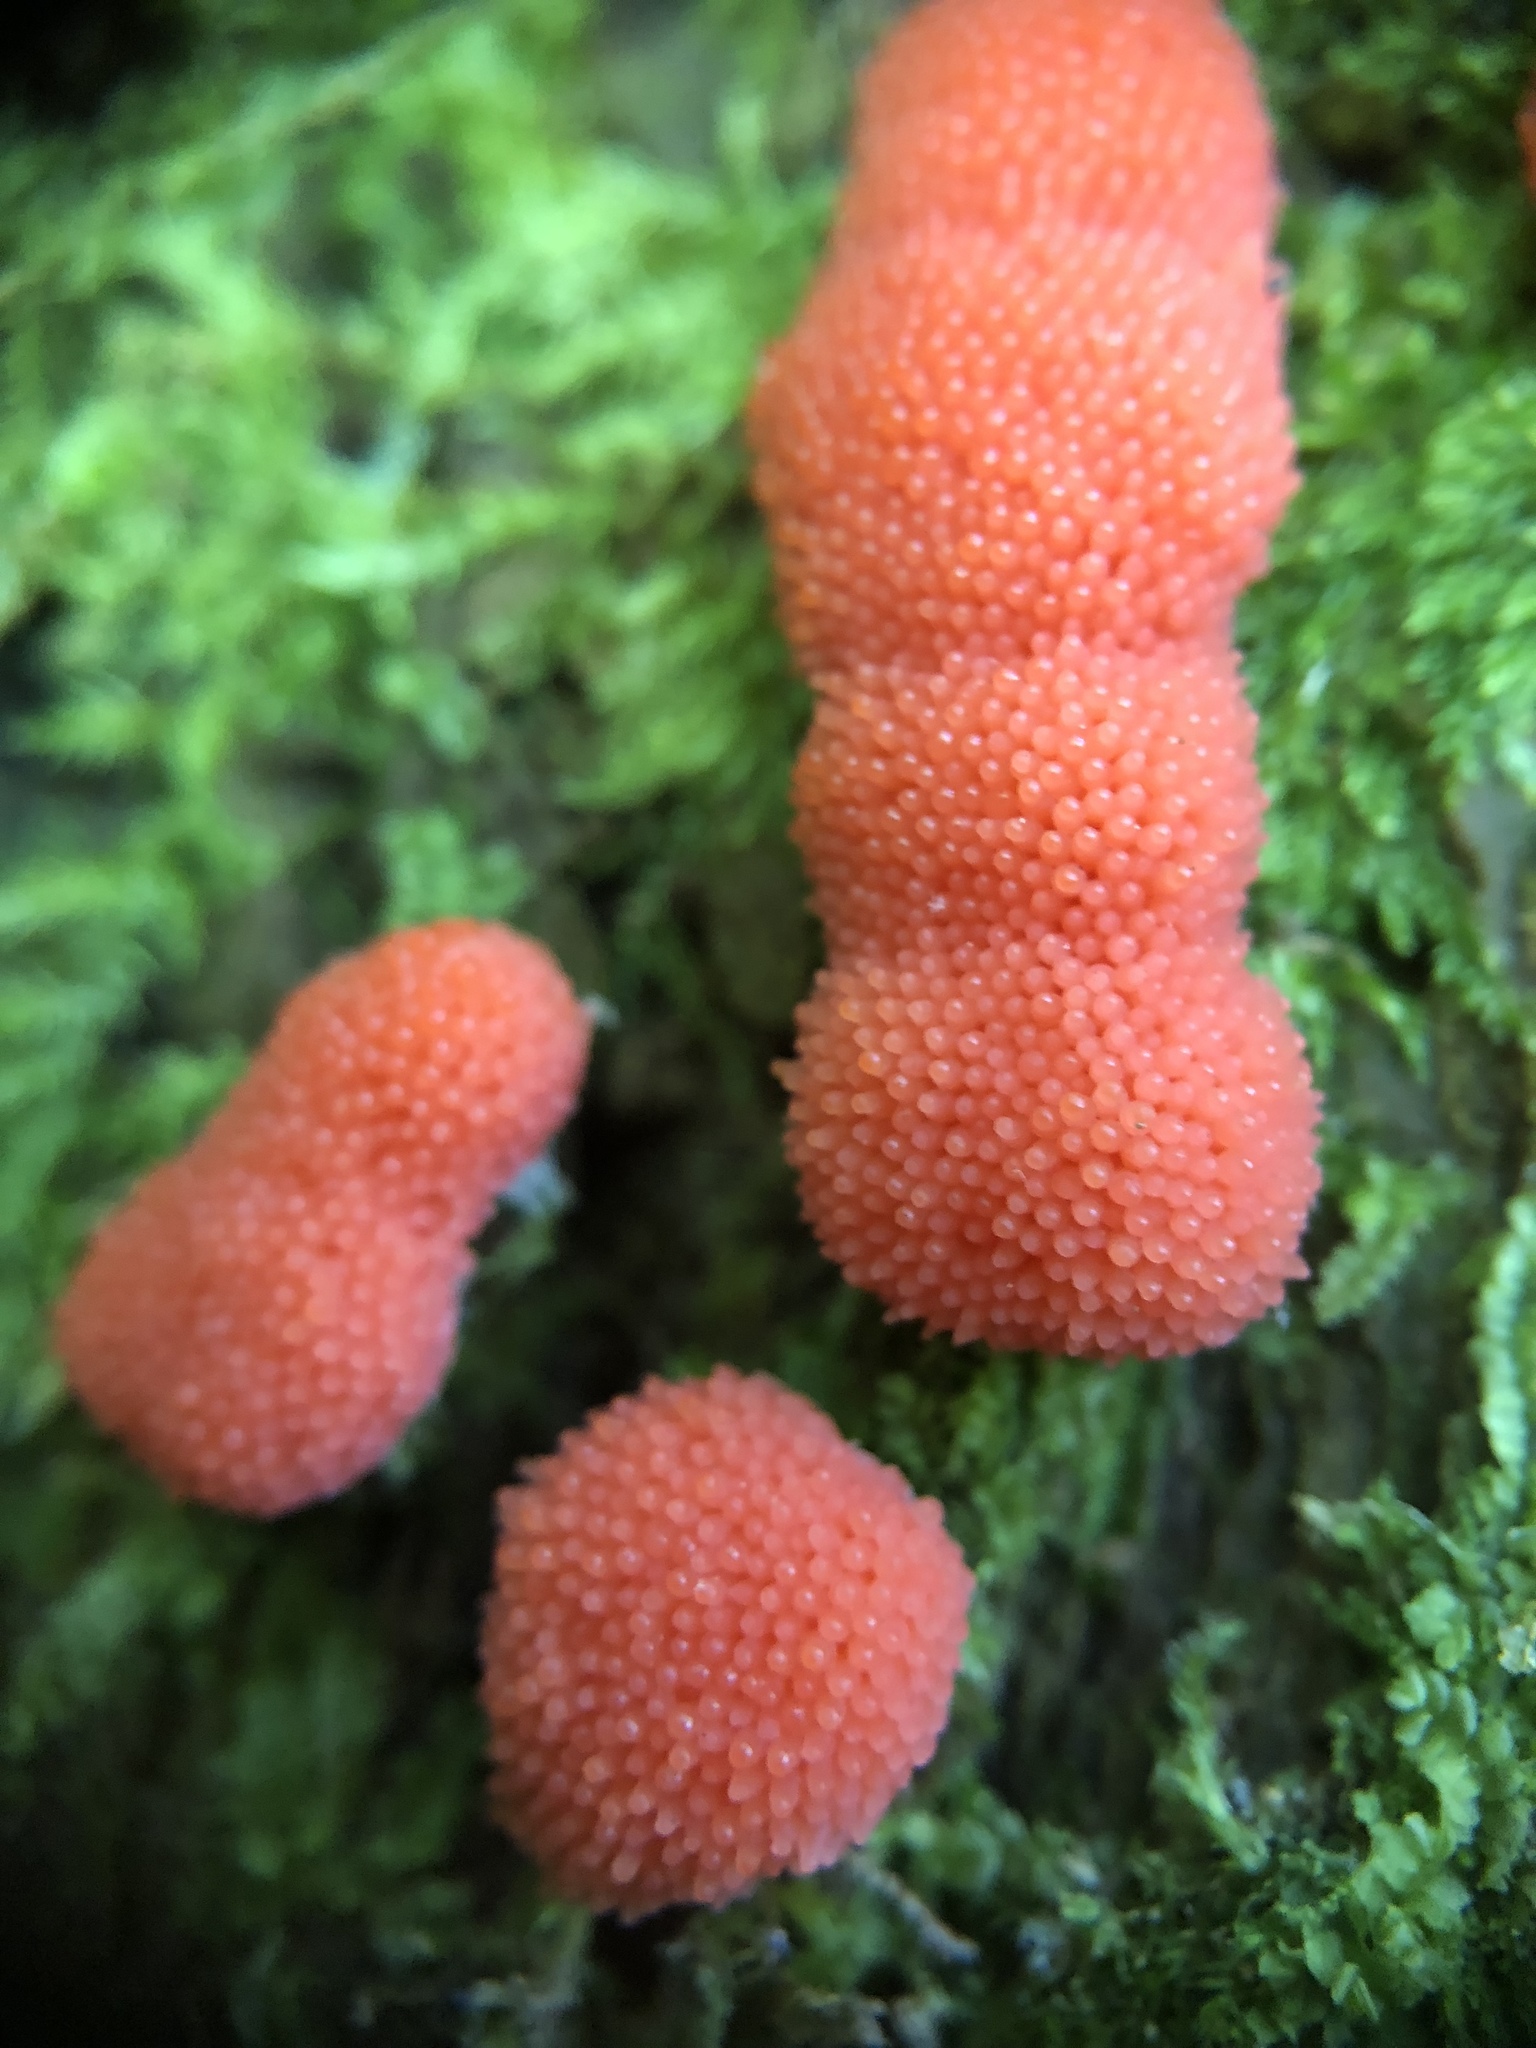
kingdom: Protozoa
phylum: Mycetozoa
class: Myxomycetes
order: Cribrariales
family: Tubiferaceae
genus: Tubifera
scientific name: Tubifera ferruginosa
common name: Red raspberry slime mold
